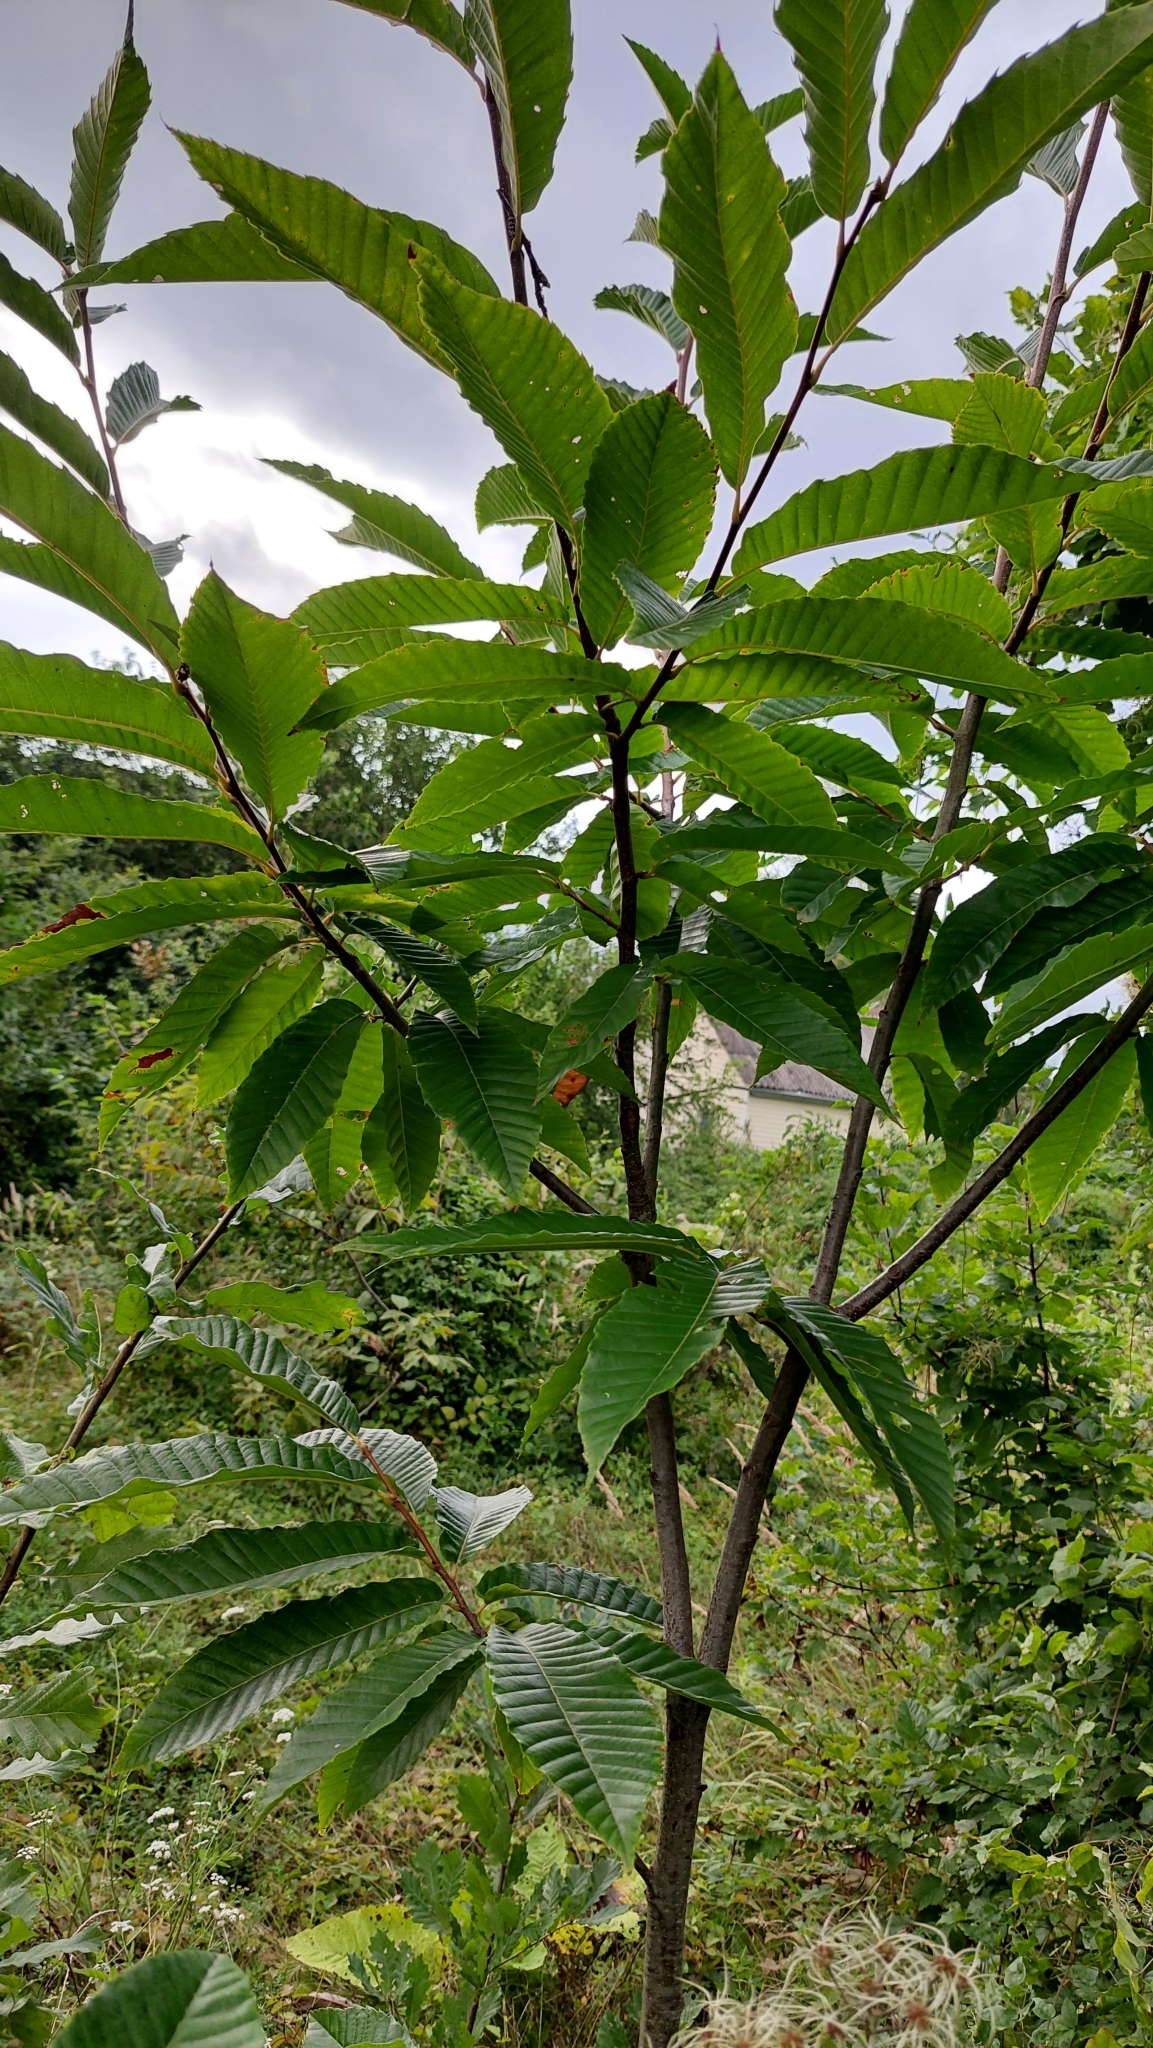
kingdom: Plantae
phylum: Tracheophyta
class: Magnoliopsida
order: Fagales
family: Fagaceae
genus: Castanea
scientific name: Castanea sativa
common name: Sweet chestnut
